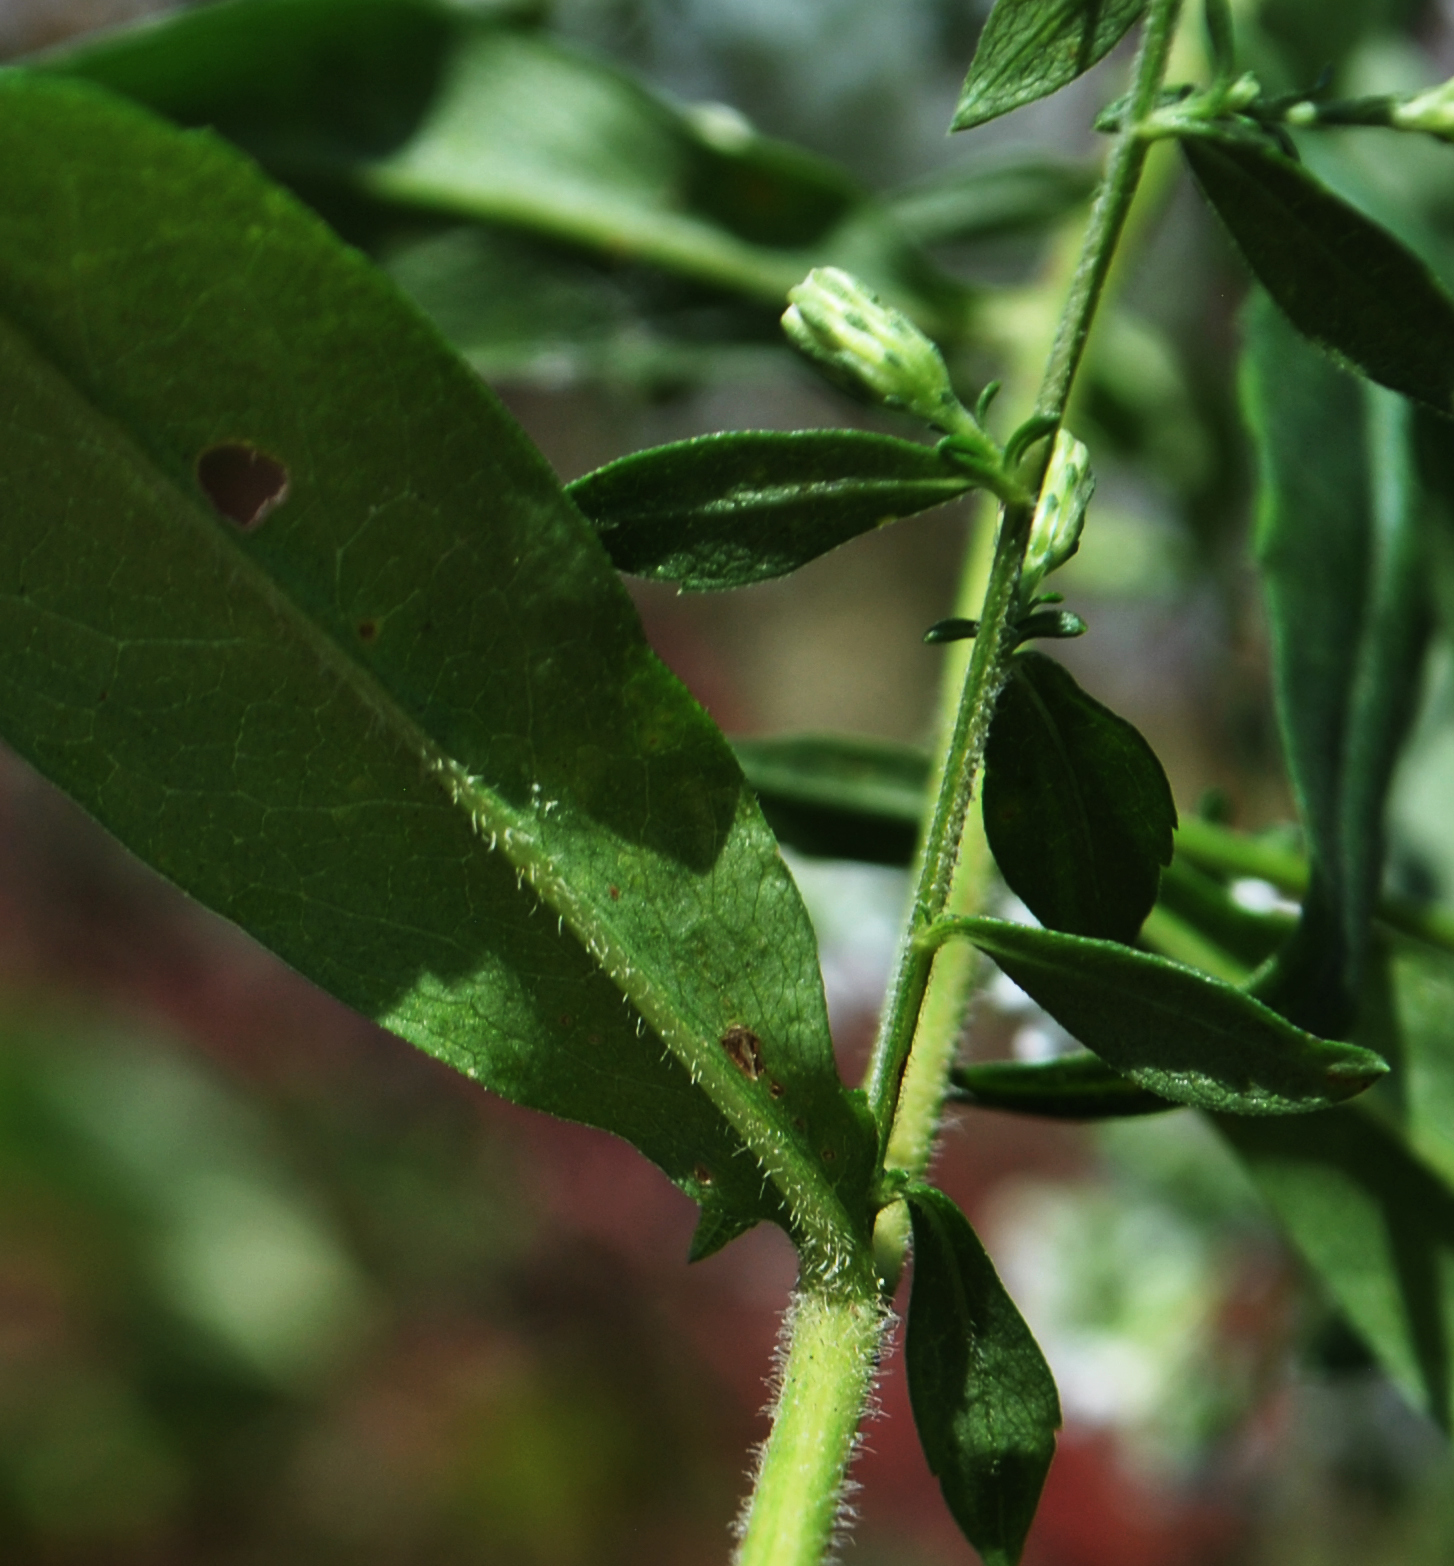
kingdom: Plantae
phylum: Tracheophyta
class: Magnoliopsida
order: Asterales
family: Asteraceae
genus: Symphyotrichum
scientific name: Symphyotrichum lateriflorum
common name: Calico aster
